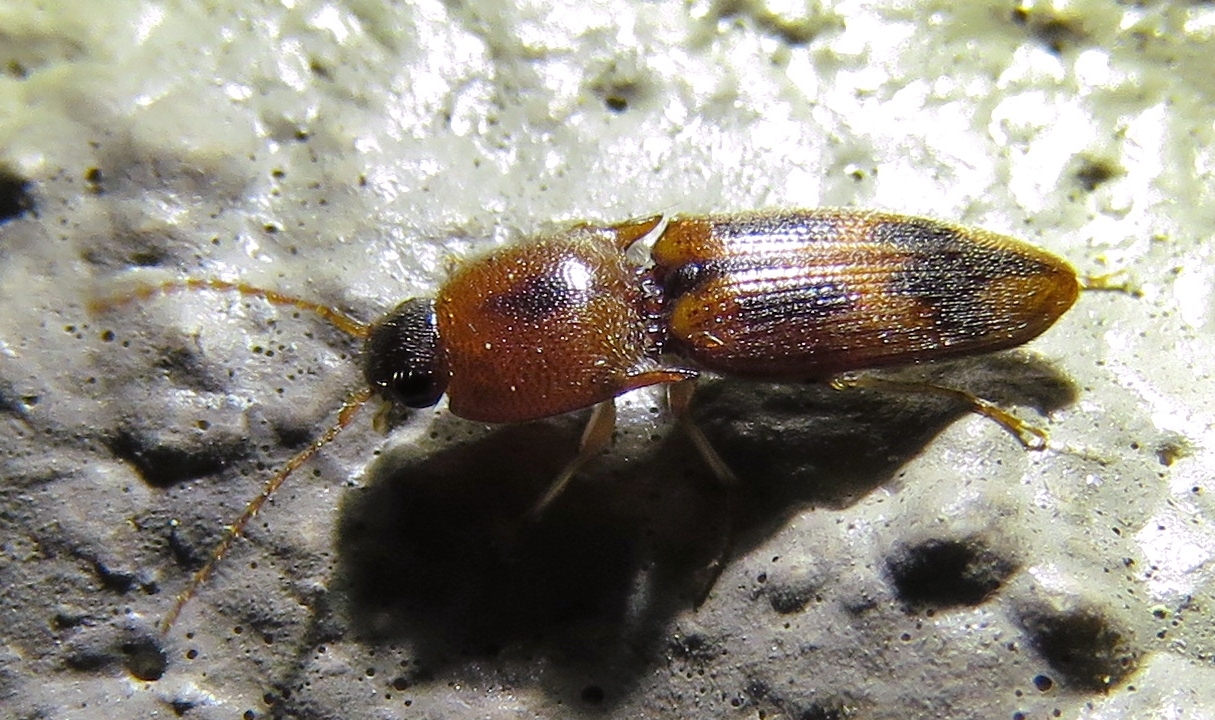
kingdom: Animalia
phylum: Arthropoda
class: Insecta
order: Coleoptera
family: Elateridae
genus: Aeolus
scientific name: Aeolus mellillus
